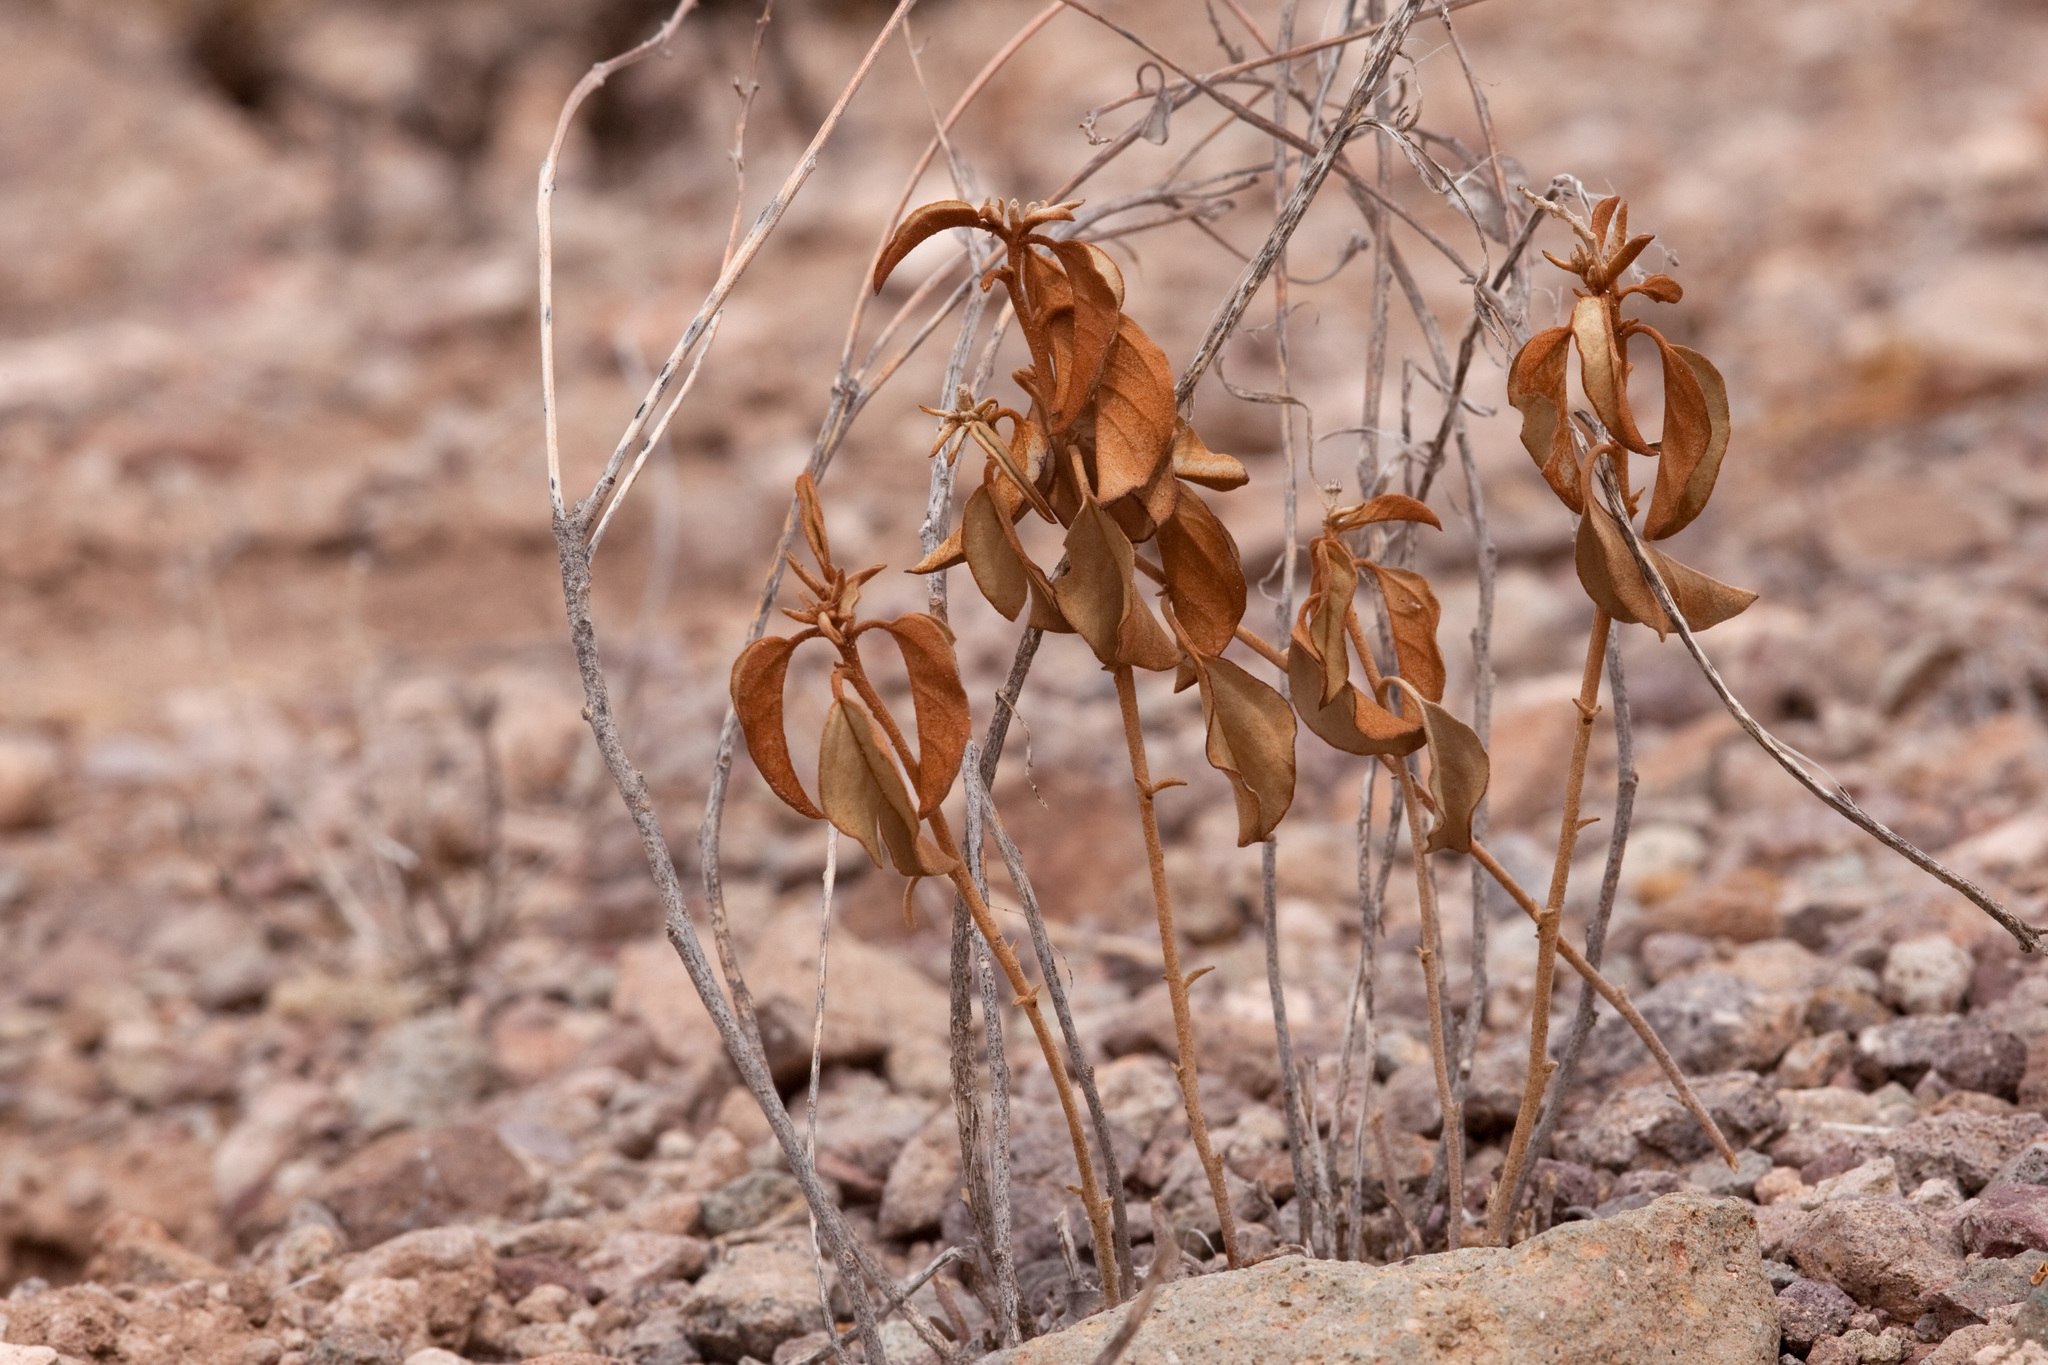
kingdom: Plantae
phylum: Tracheophyta
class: Magnoliopsida
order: Malpighiales
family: Euphorbiaceae
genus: Croton
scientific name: Croton pottsii
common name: Leatherweed
